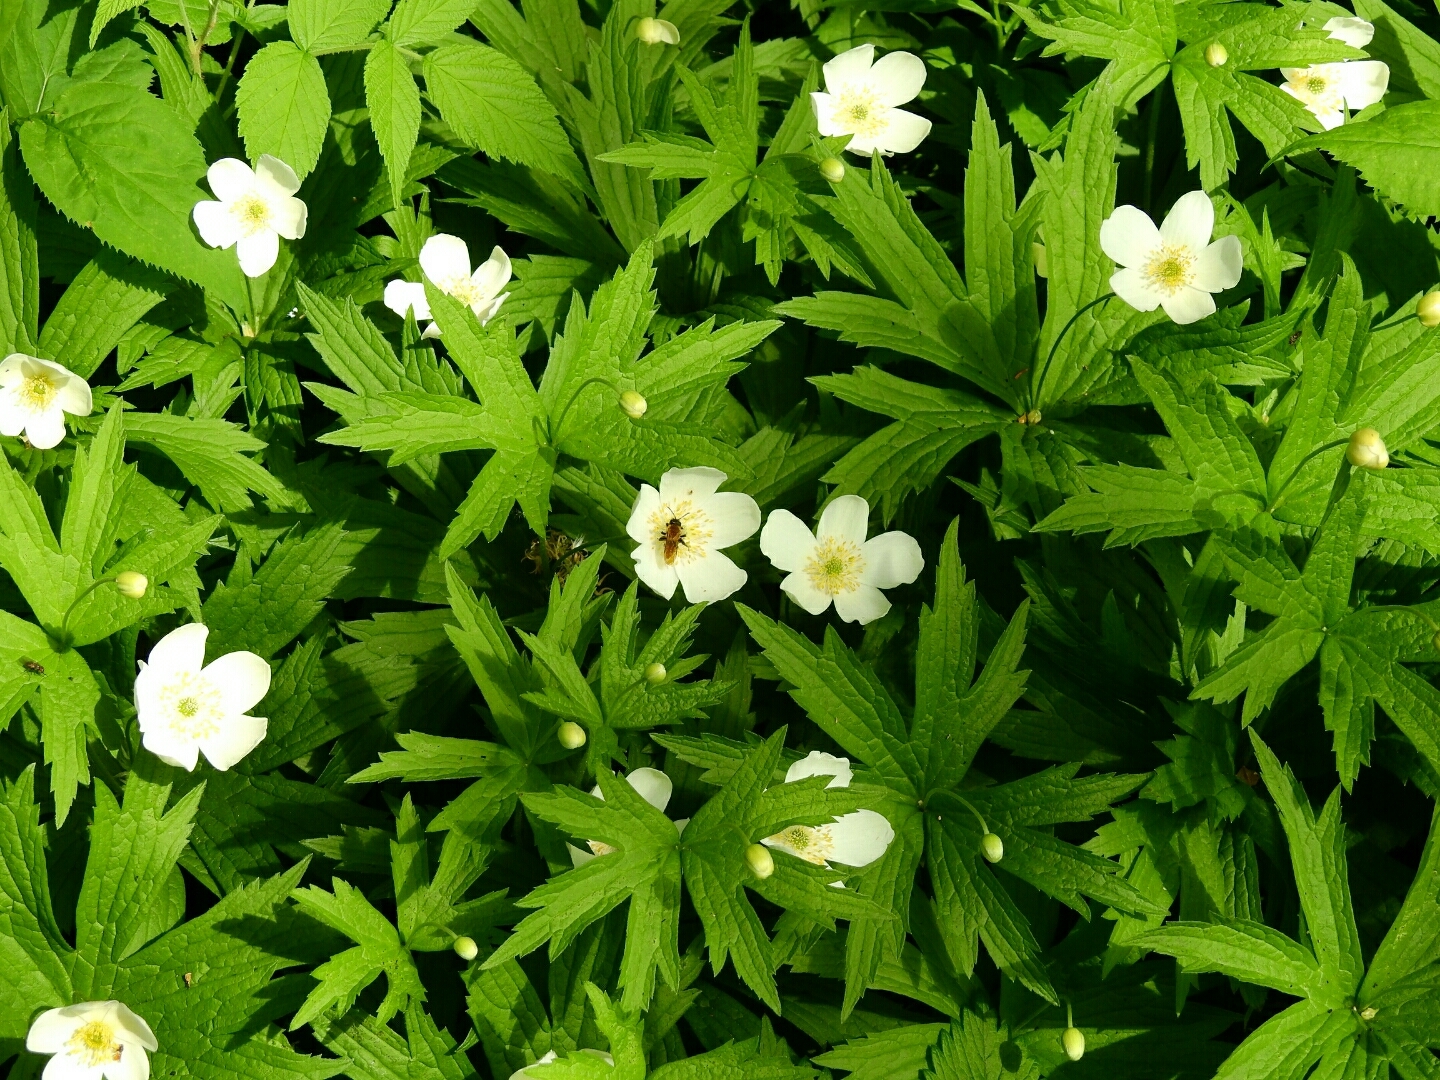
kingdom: Plantae
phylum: Tracheophyta
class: Magnoliopsida
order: Ranunculales
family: Ranunculaceae
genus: Anemonastrum
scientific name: Anemonastrum canadense
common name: Canada anemone
